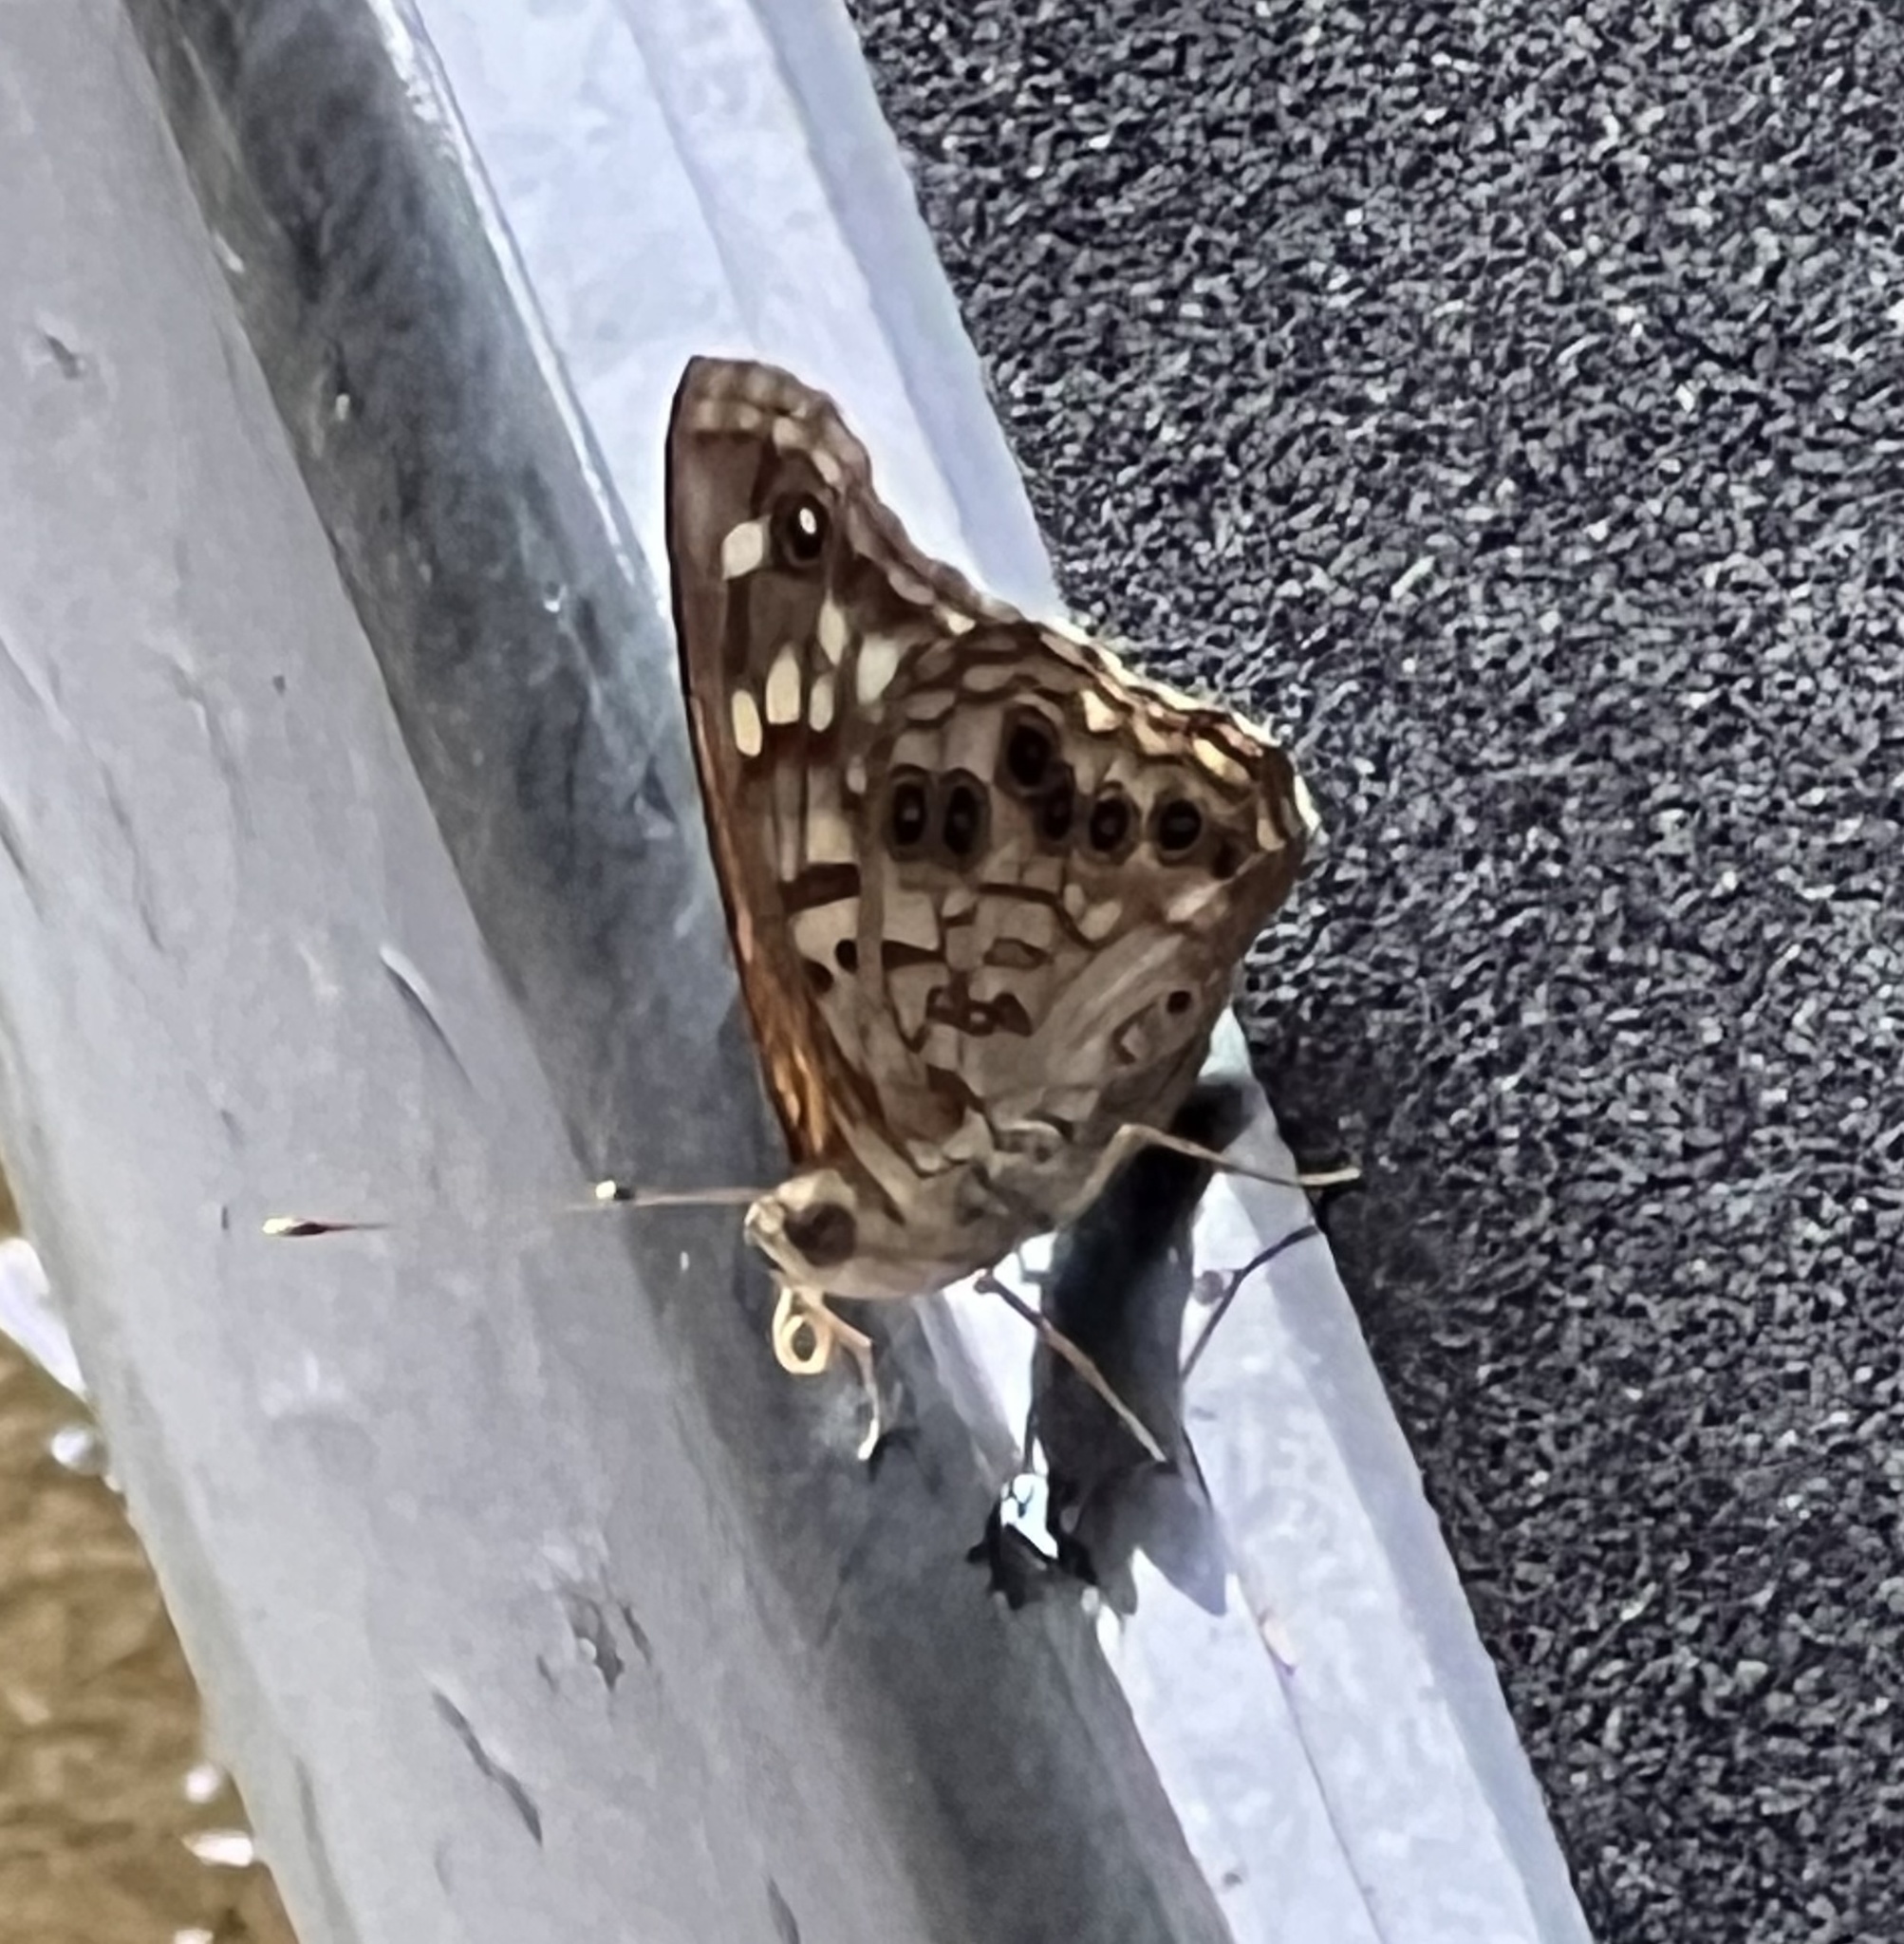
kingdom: Animalia
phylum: Arthropoda
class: Insecta
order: Lepidoptera
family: Nymphalidae
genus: Asterocampa
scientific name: Asterocampa celtis
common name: Hackberry emperor
